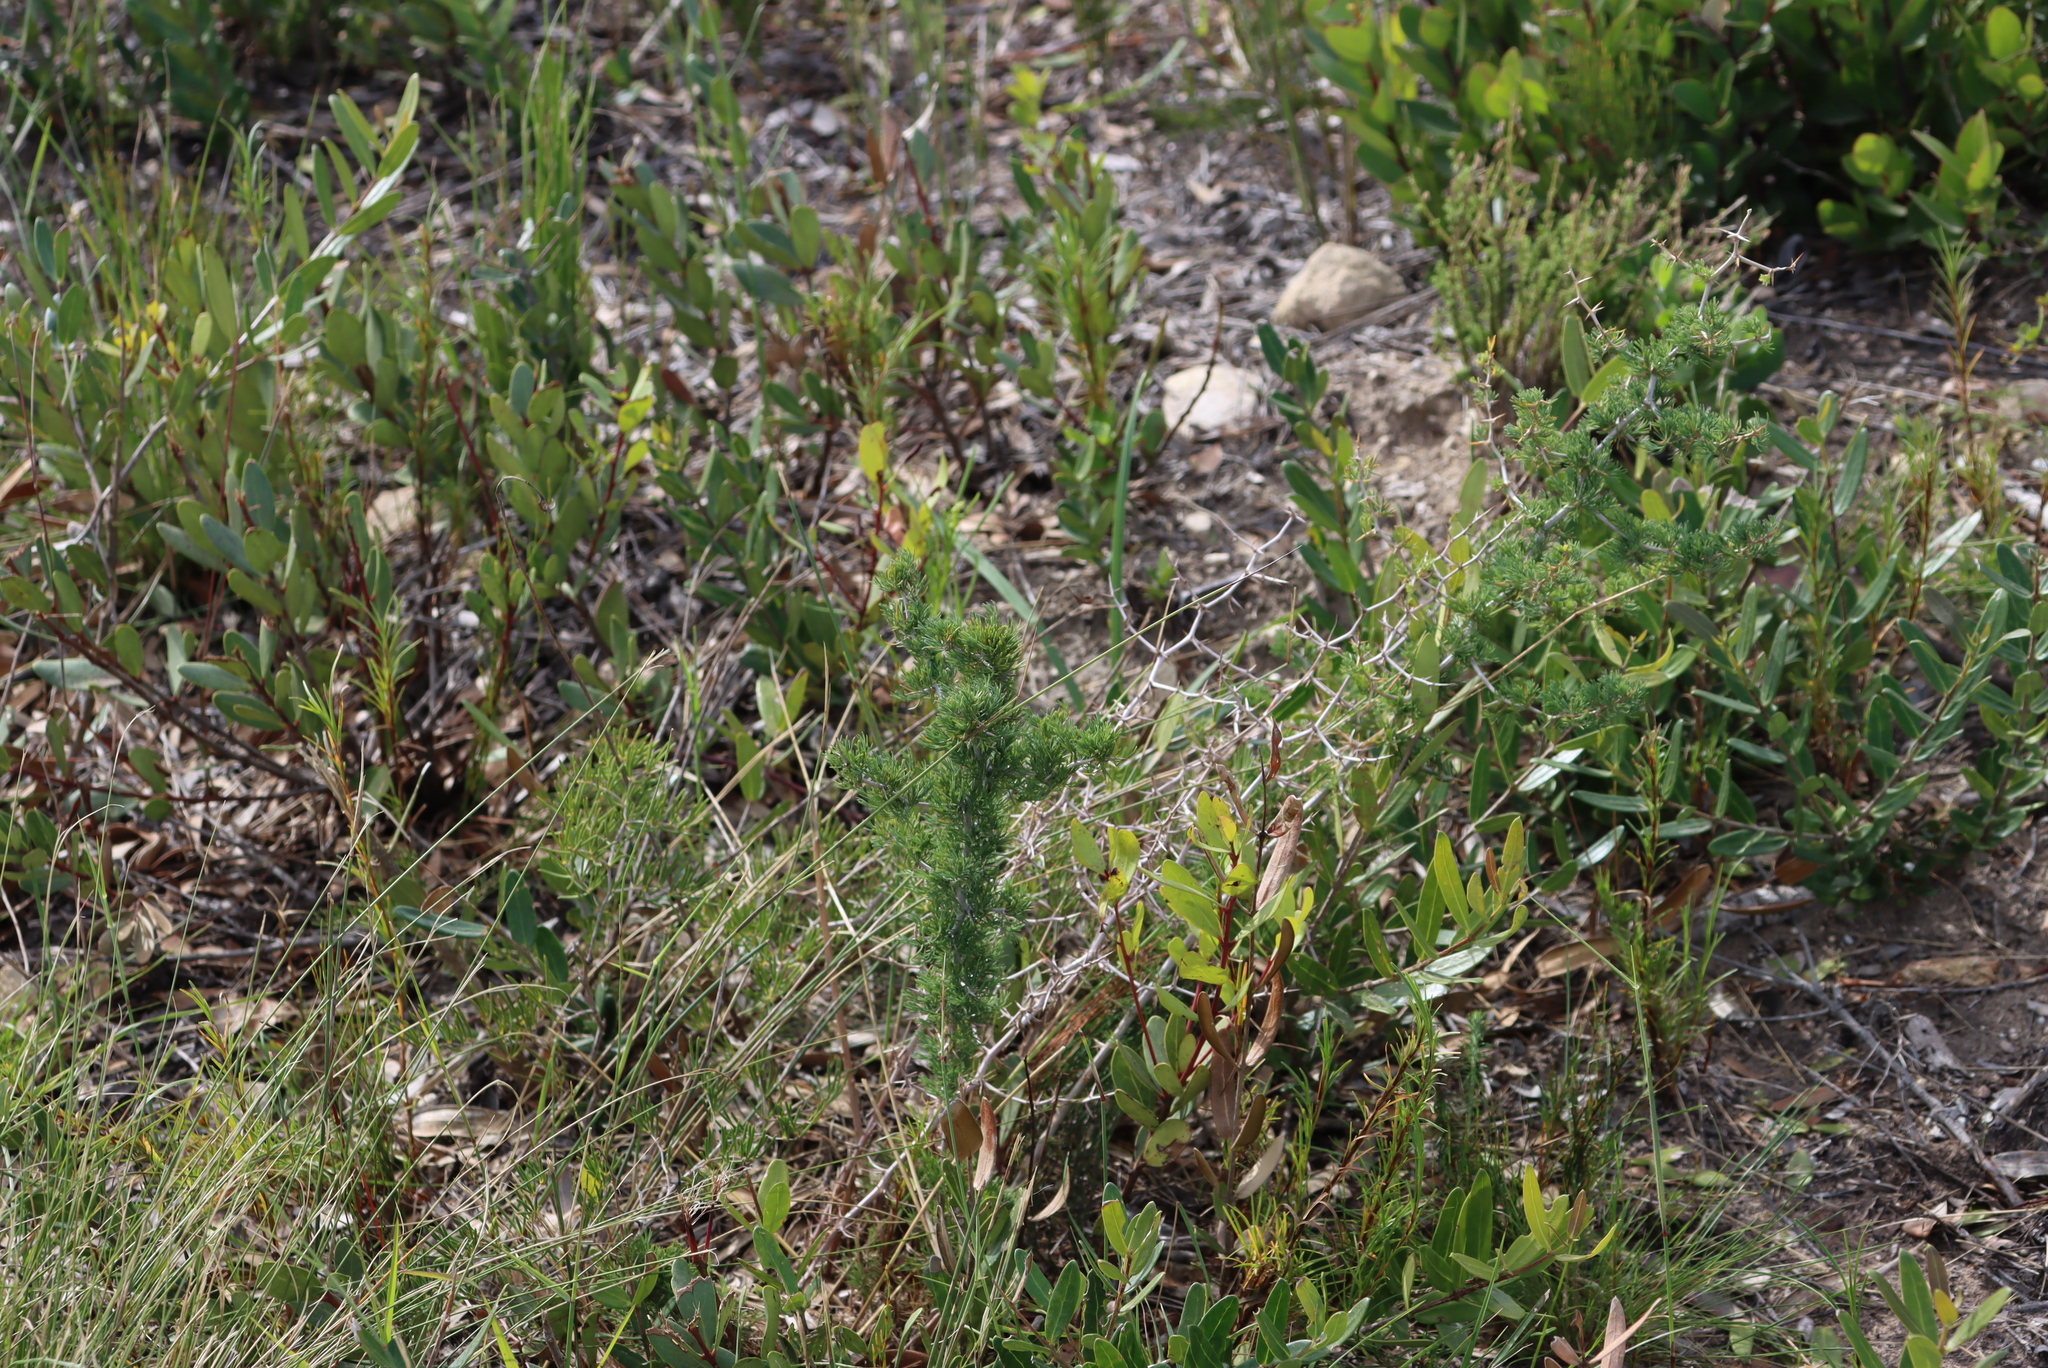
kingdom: Plantae
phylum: Tracheophyta
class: Liliopsida
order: Asparagales
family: Asparagaceae
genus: Asparagus
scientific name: Asparagus suaveolens
